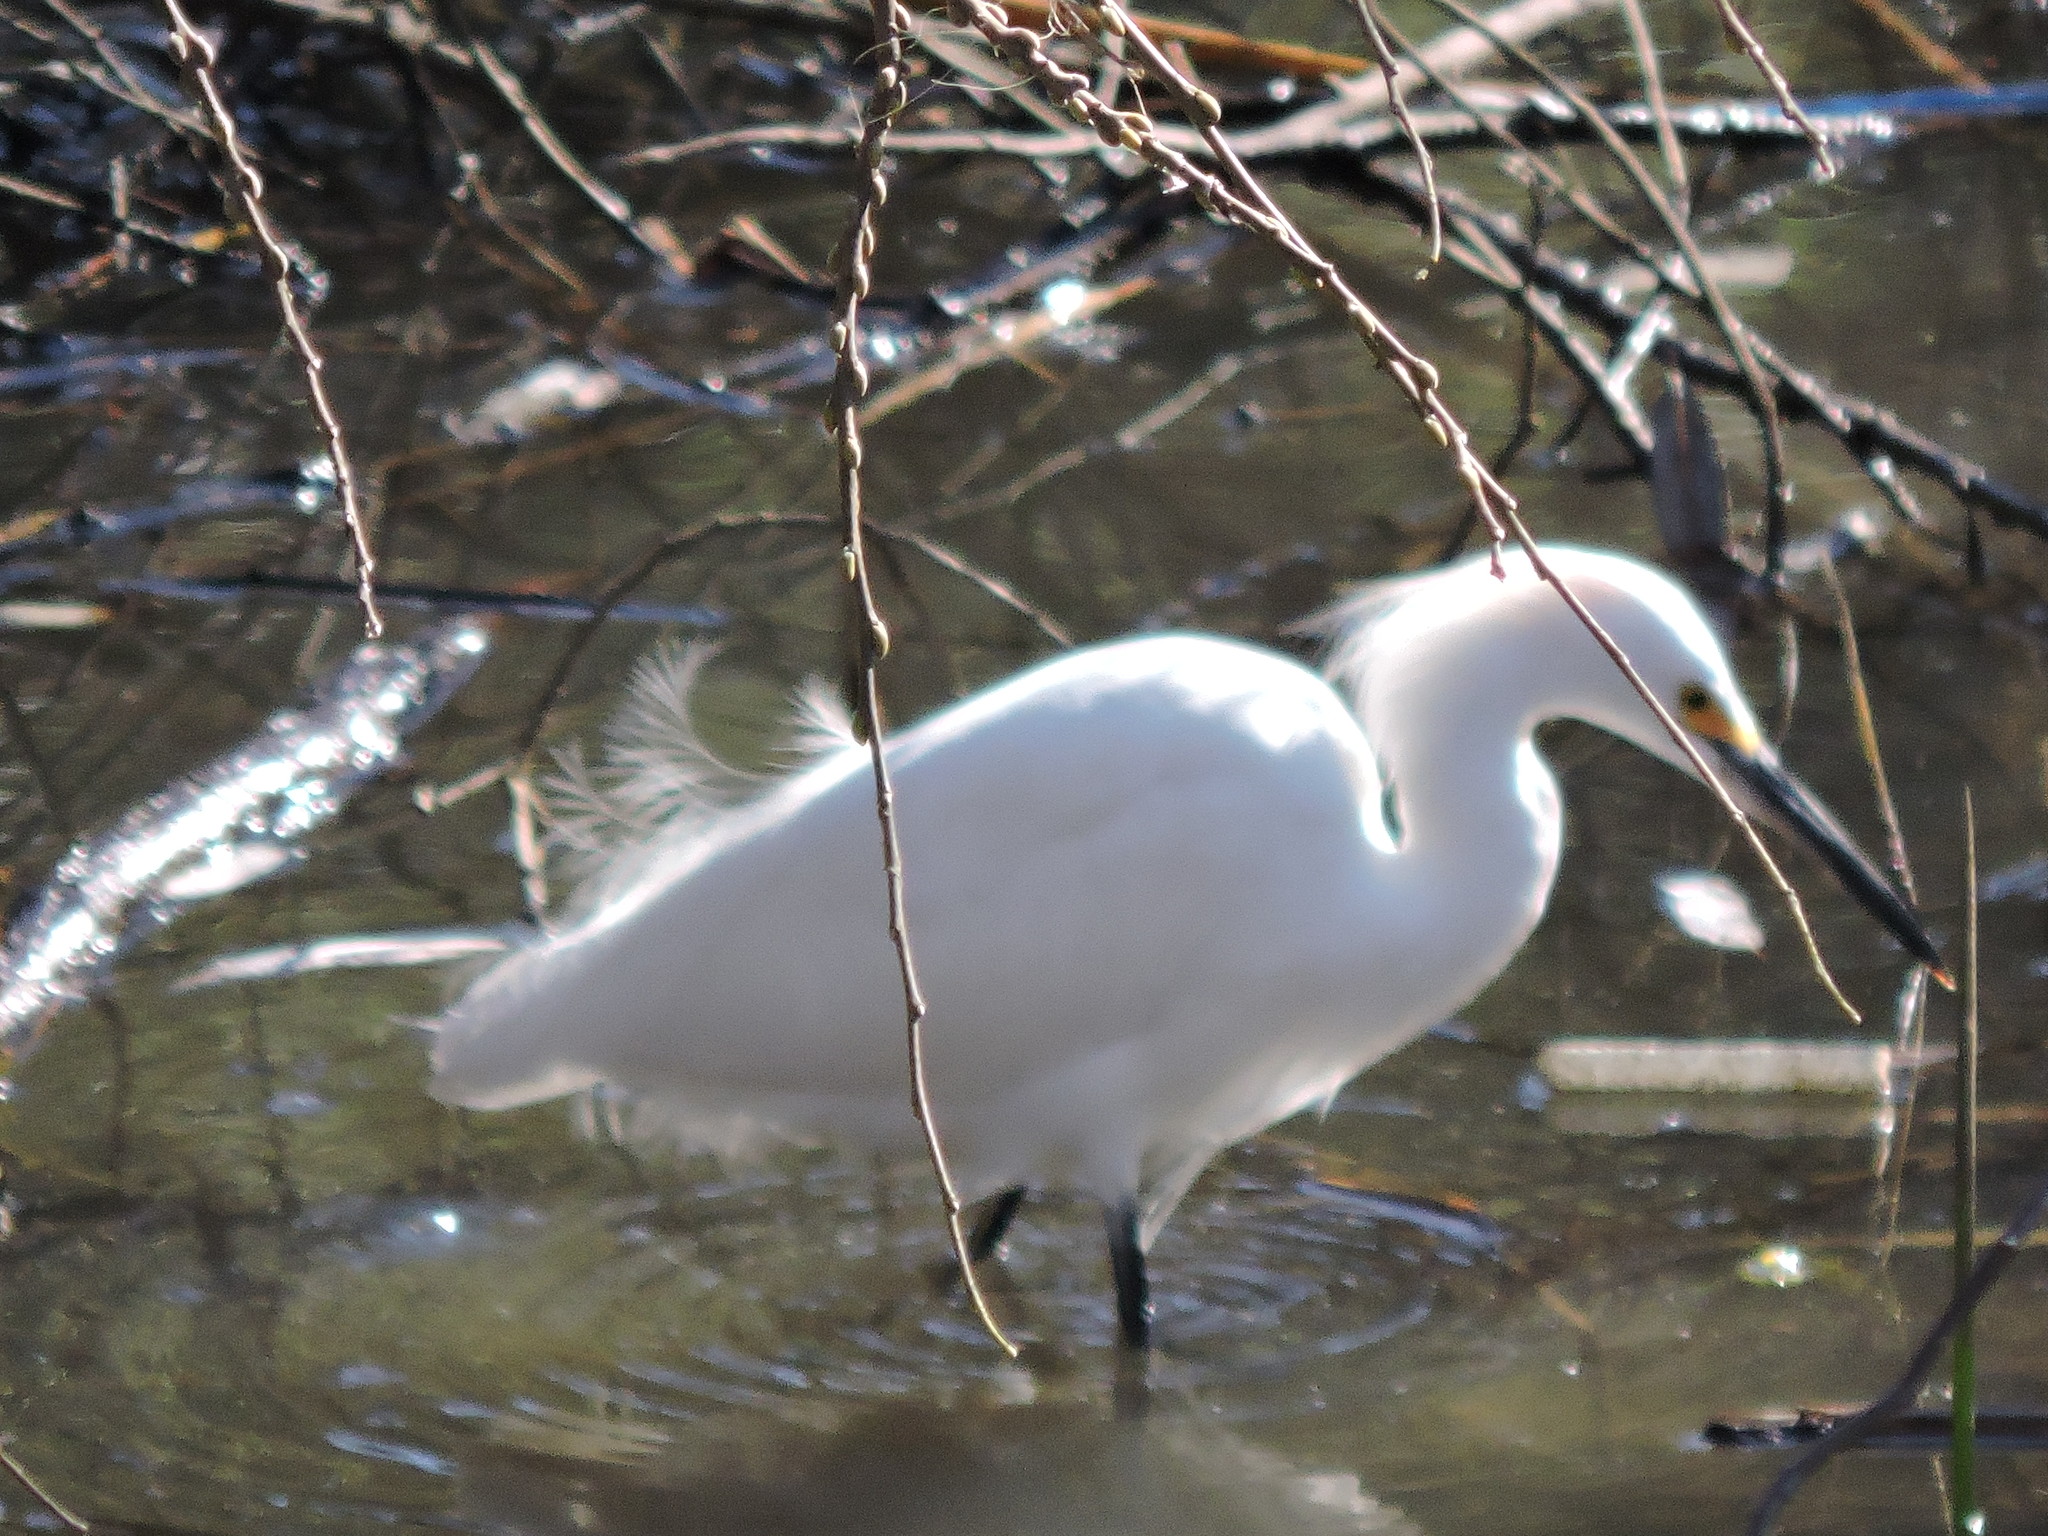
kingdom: Animalia
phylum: Chordata
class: Aves
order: Pelecaniformes
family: Ardeidae
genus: Egretta
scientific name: Egretta thula
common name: Snowy egret
